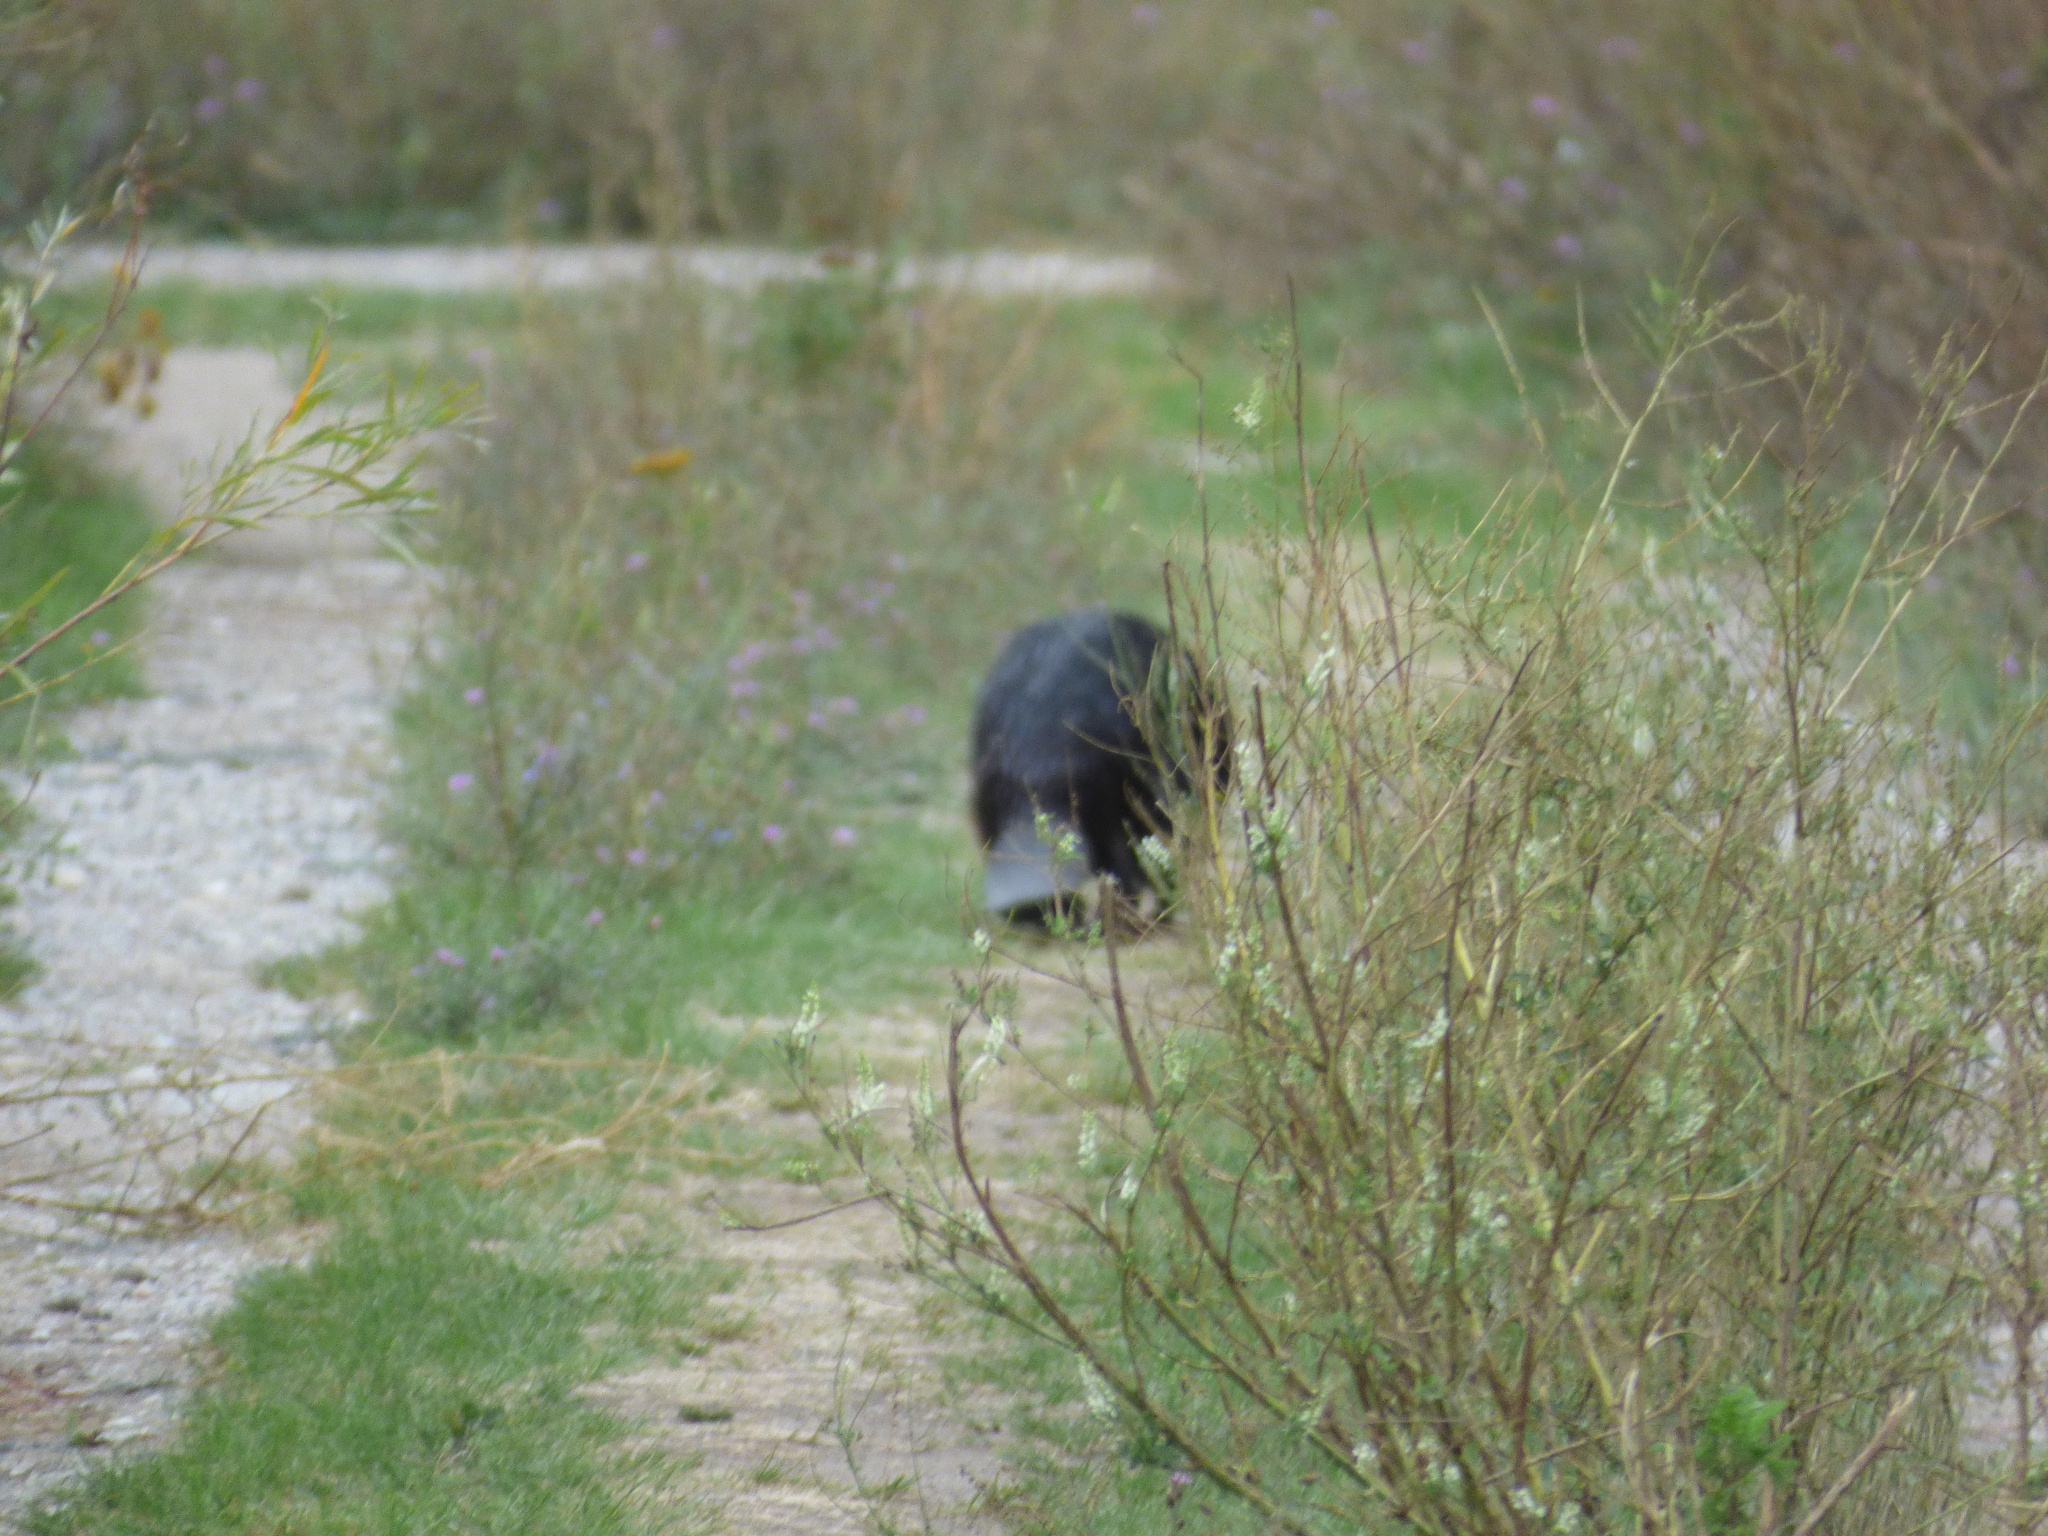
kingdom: Animalia
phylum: Chordata
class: Mammalia
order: Rodentia
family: Castoridae
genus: Castor
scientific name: Castor canadensis
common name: American beaver
